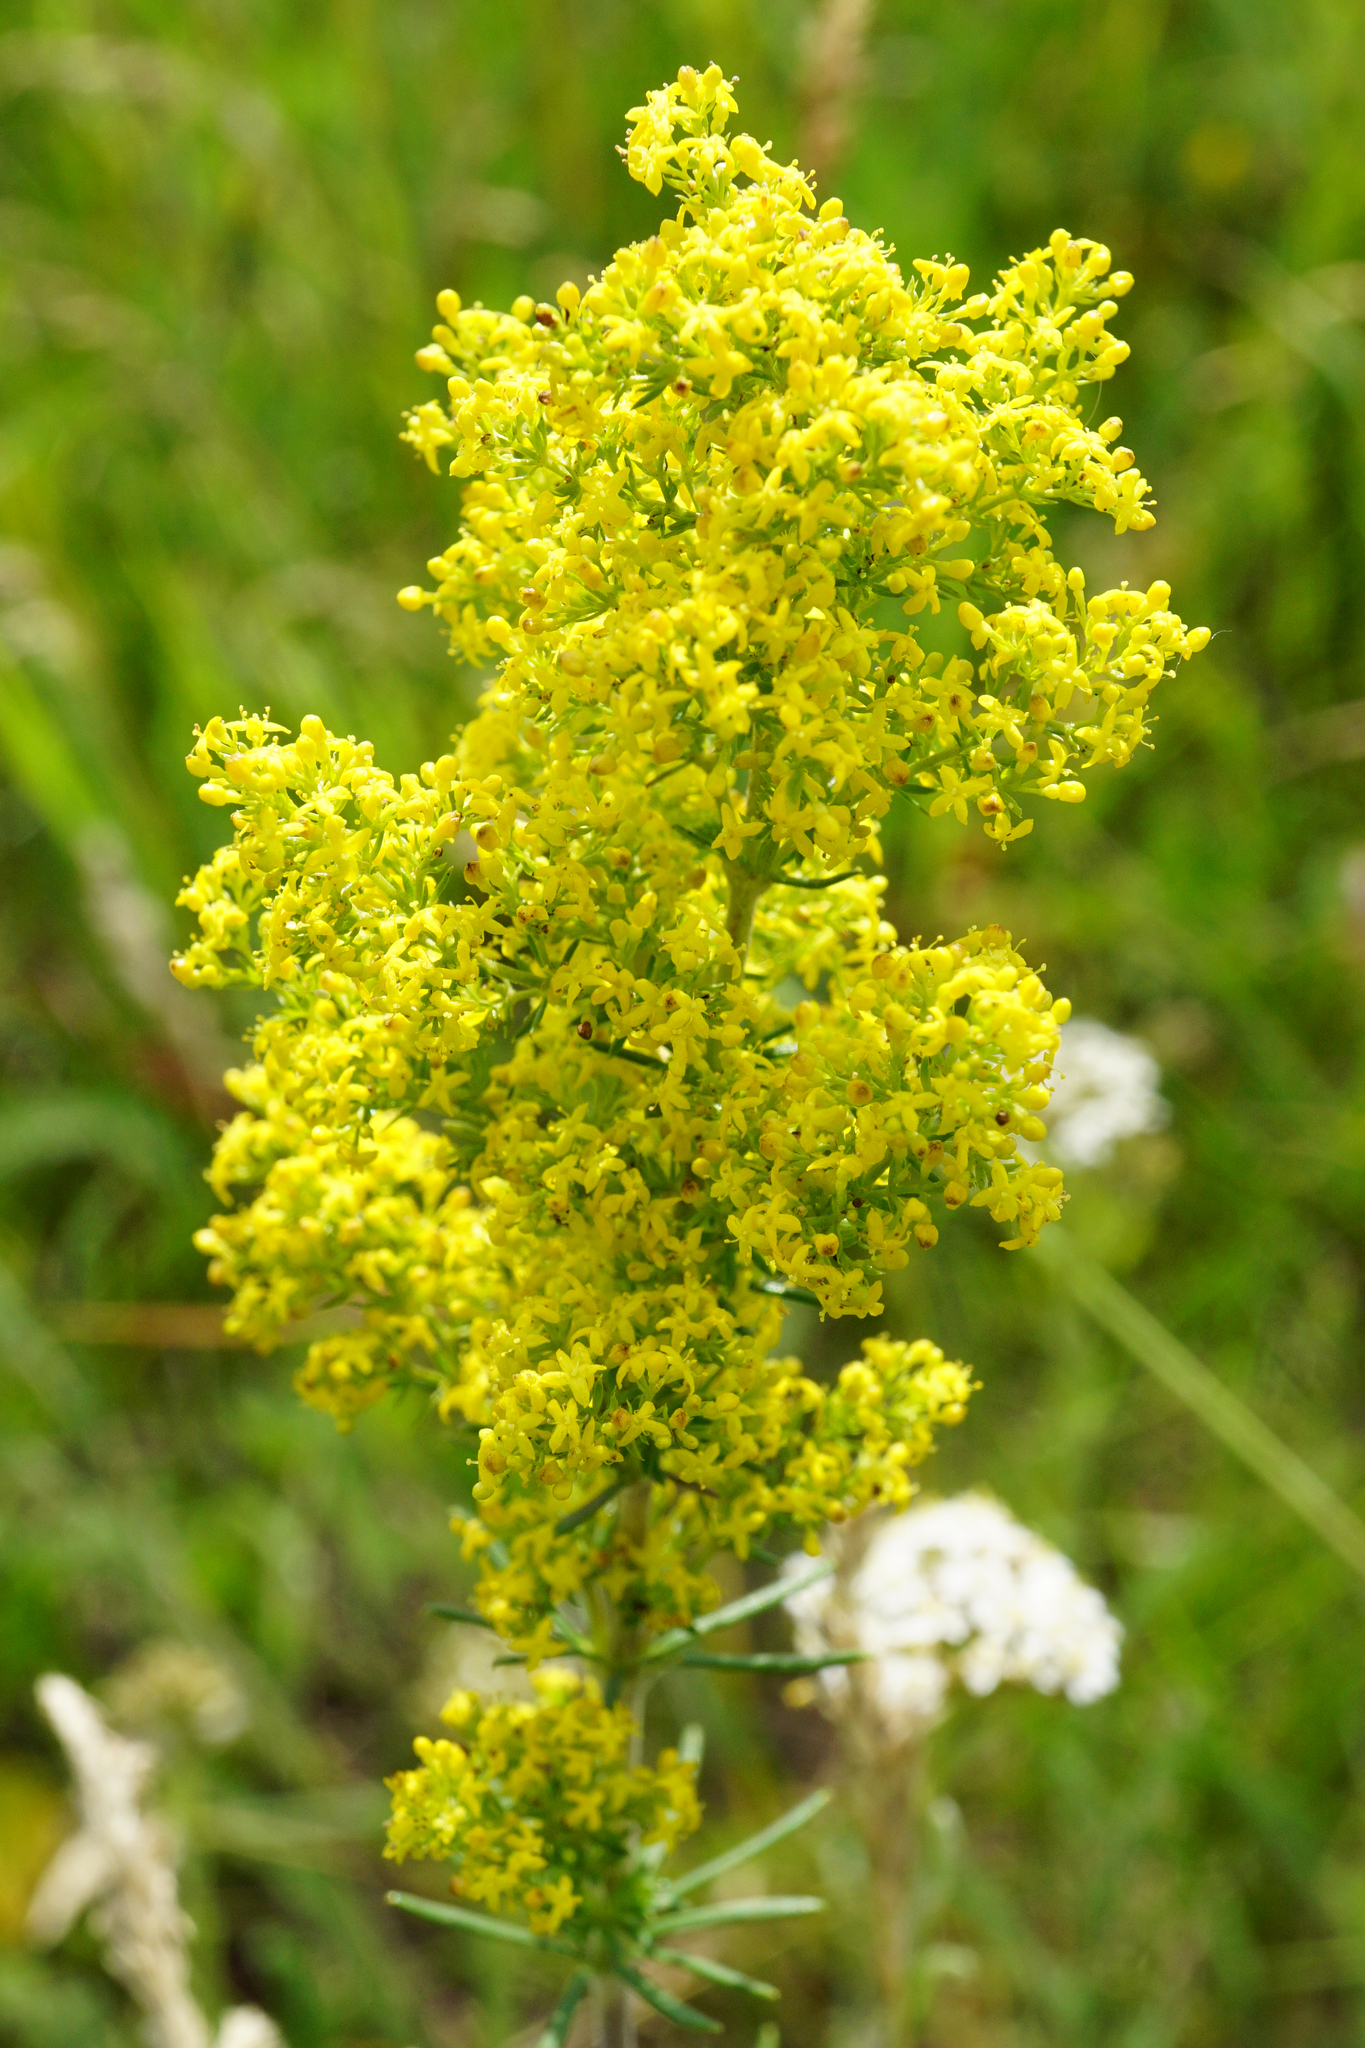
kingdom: Plantae
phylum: Tracheophyta
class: Magnoliopsida
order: Gentianales
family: Rubiaceae
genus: Galium
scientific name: Galium verum
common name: Lady's bedstraw
